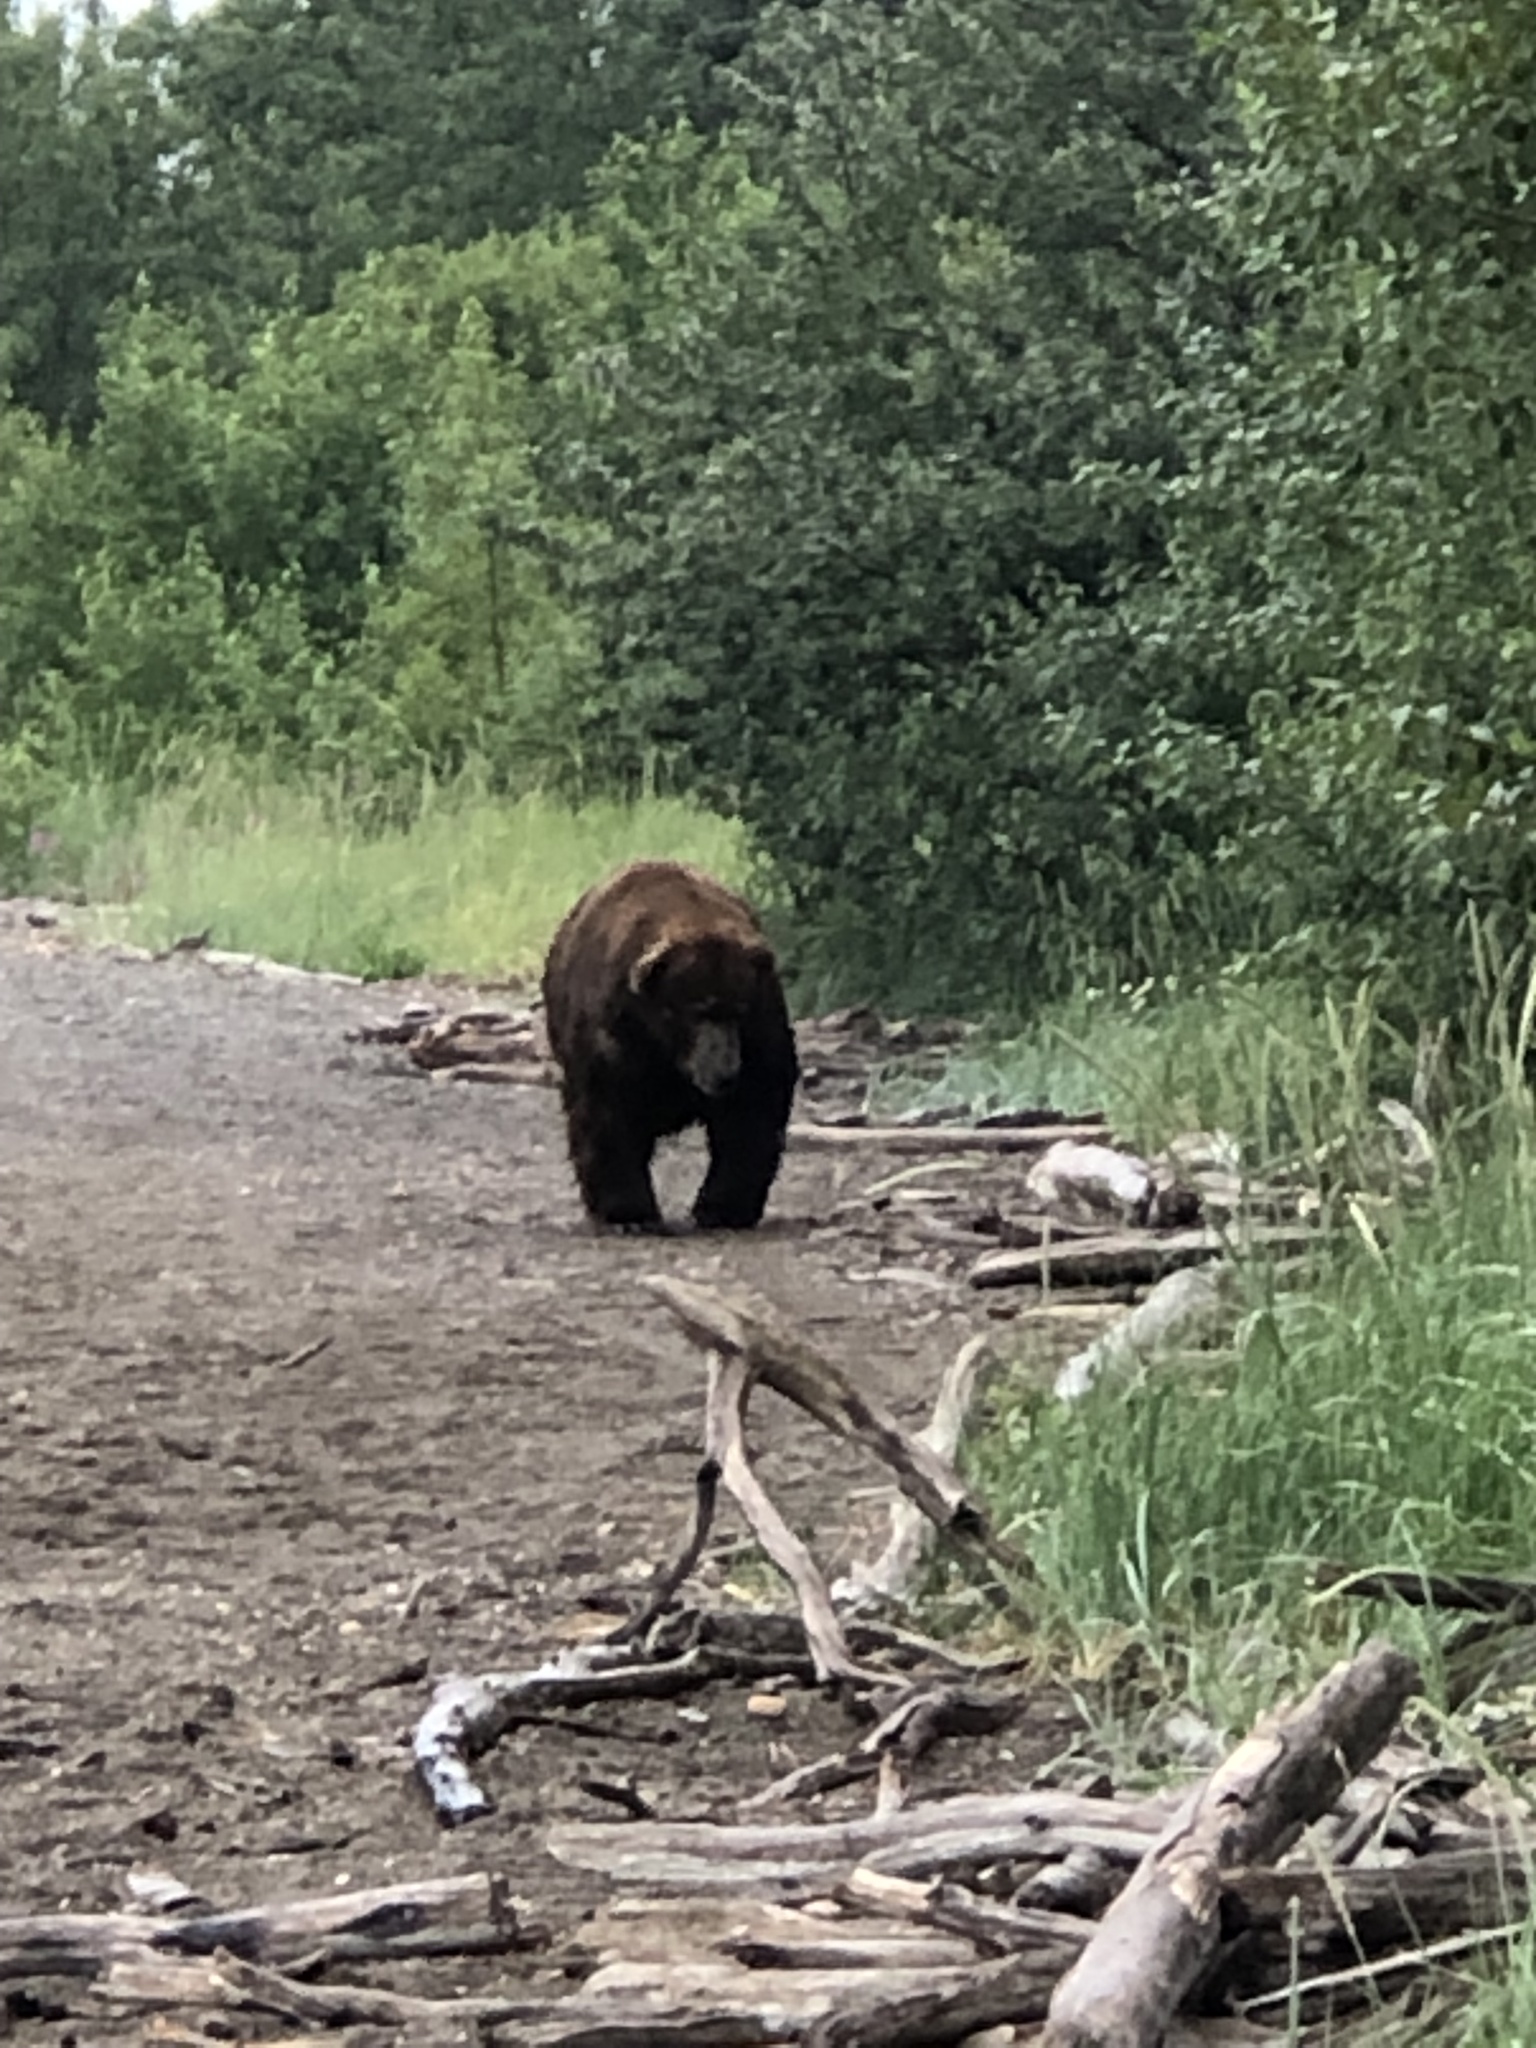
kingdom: Animalia
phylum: Chordata
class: Mammalia
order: Carnivora
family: Ursidae
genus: Ursus
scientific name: Ursus arctos
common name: Brown bear
